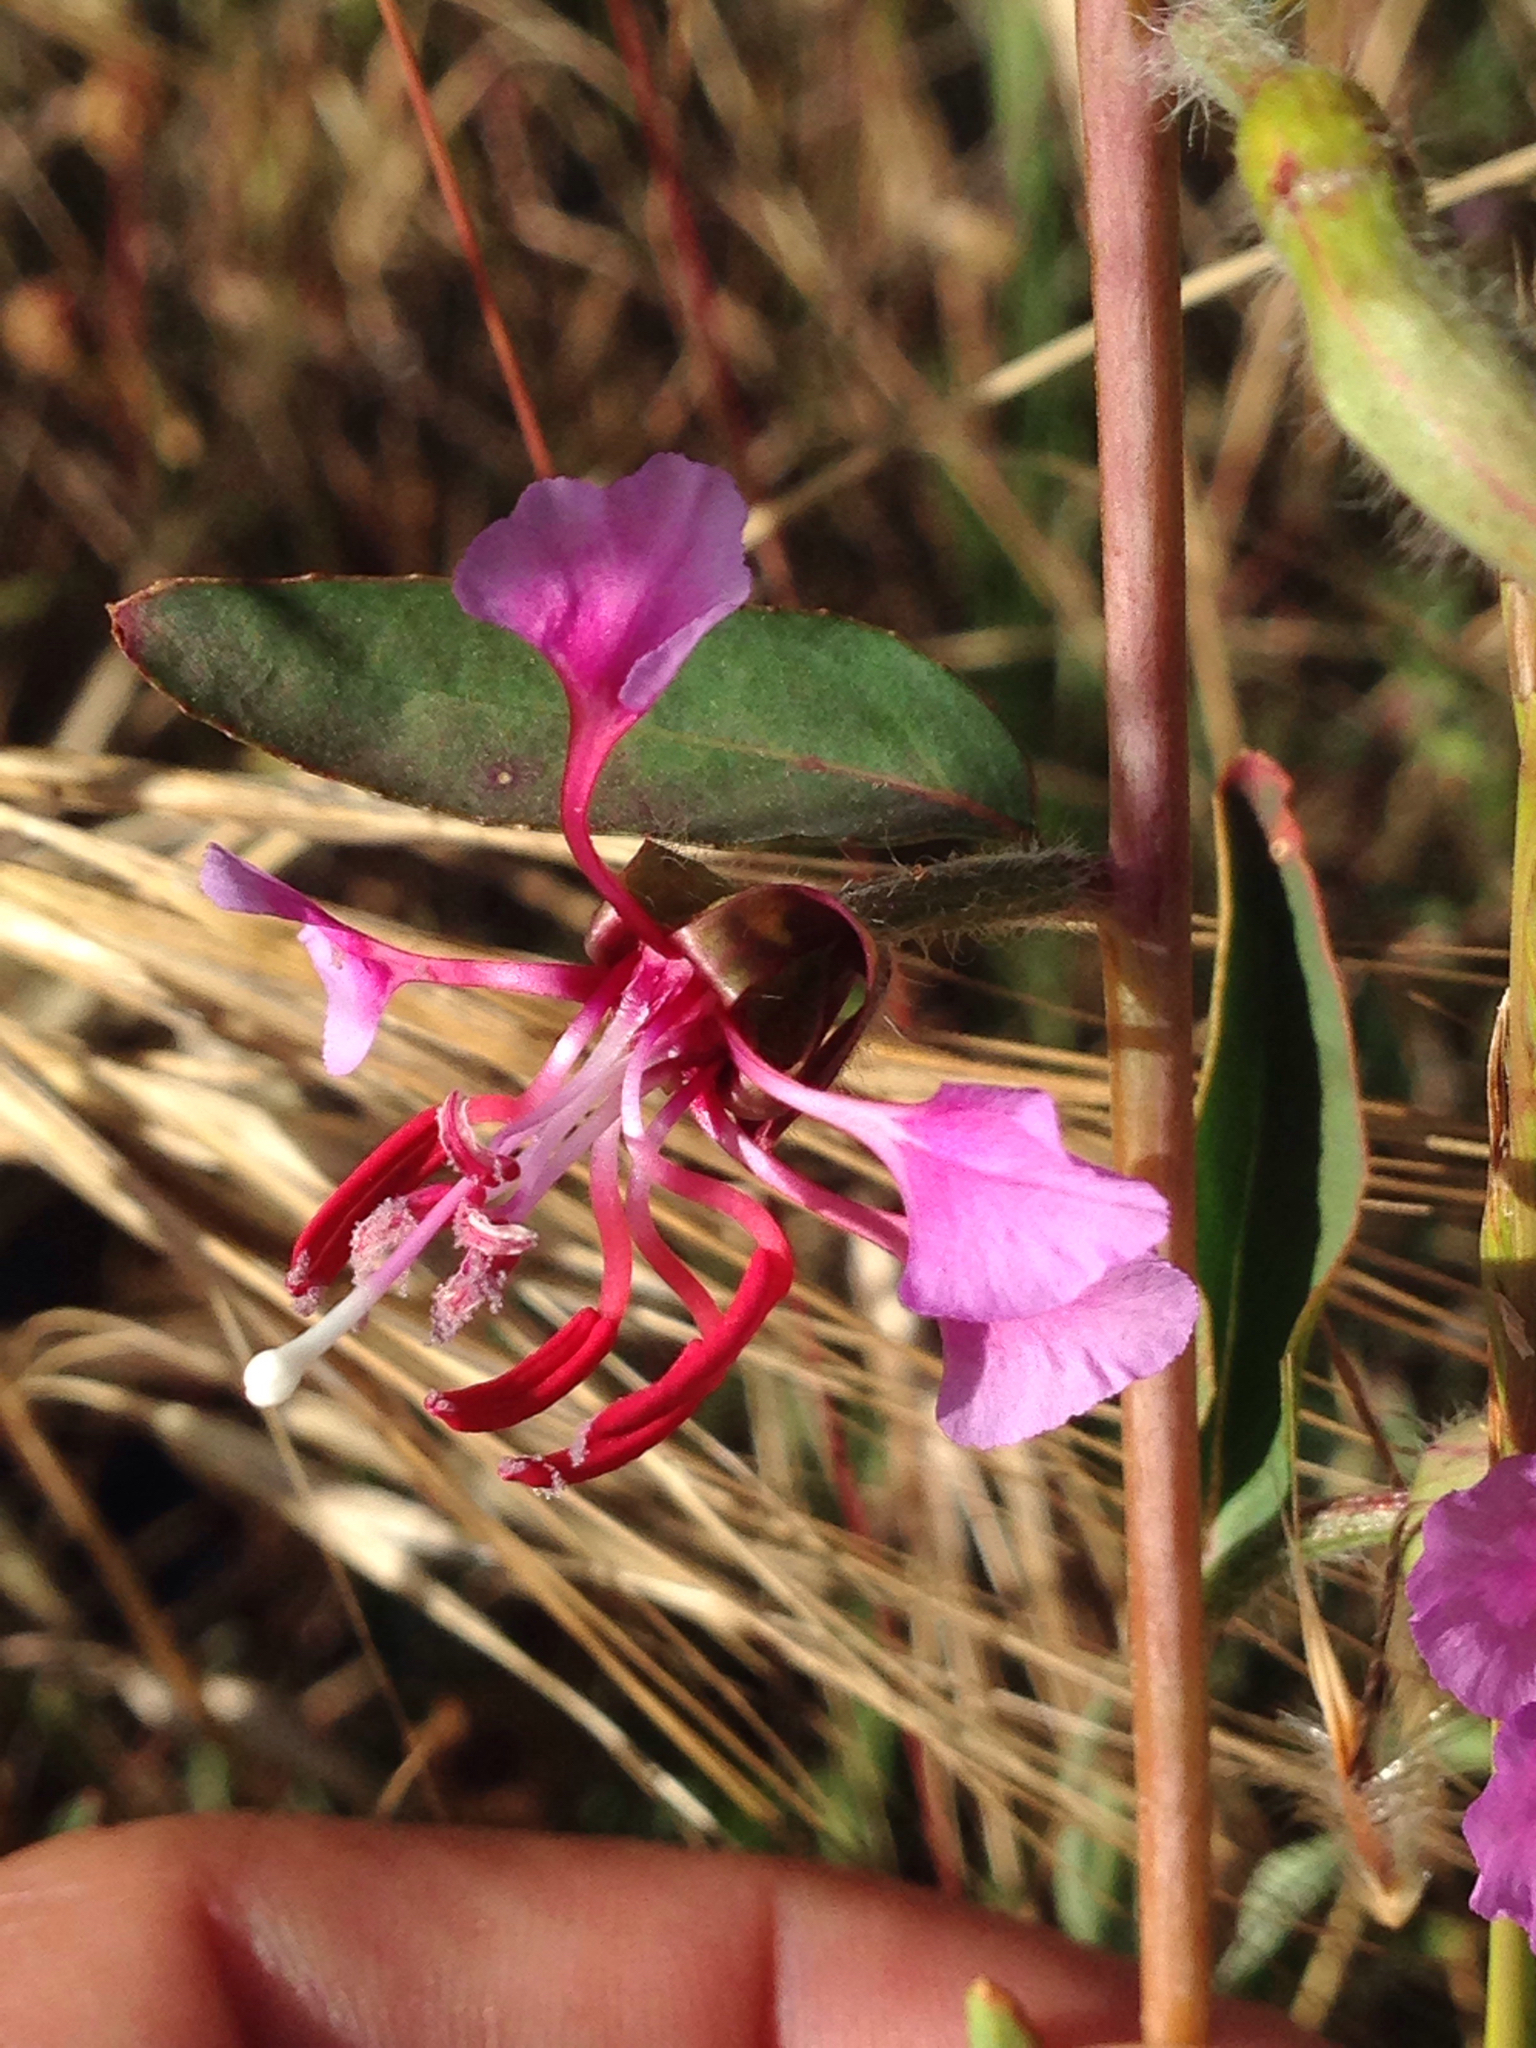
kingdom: Plantae
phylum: Tracheophyta
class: Magnoliopsida
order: Myrtales
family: Onagraceae
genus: Clarkia
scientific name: Clarkia unguiculata
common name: Clarkia
